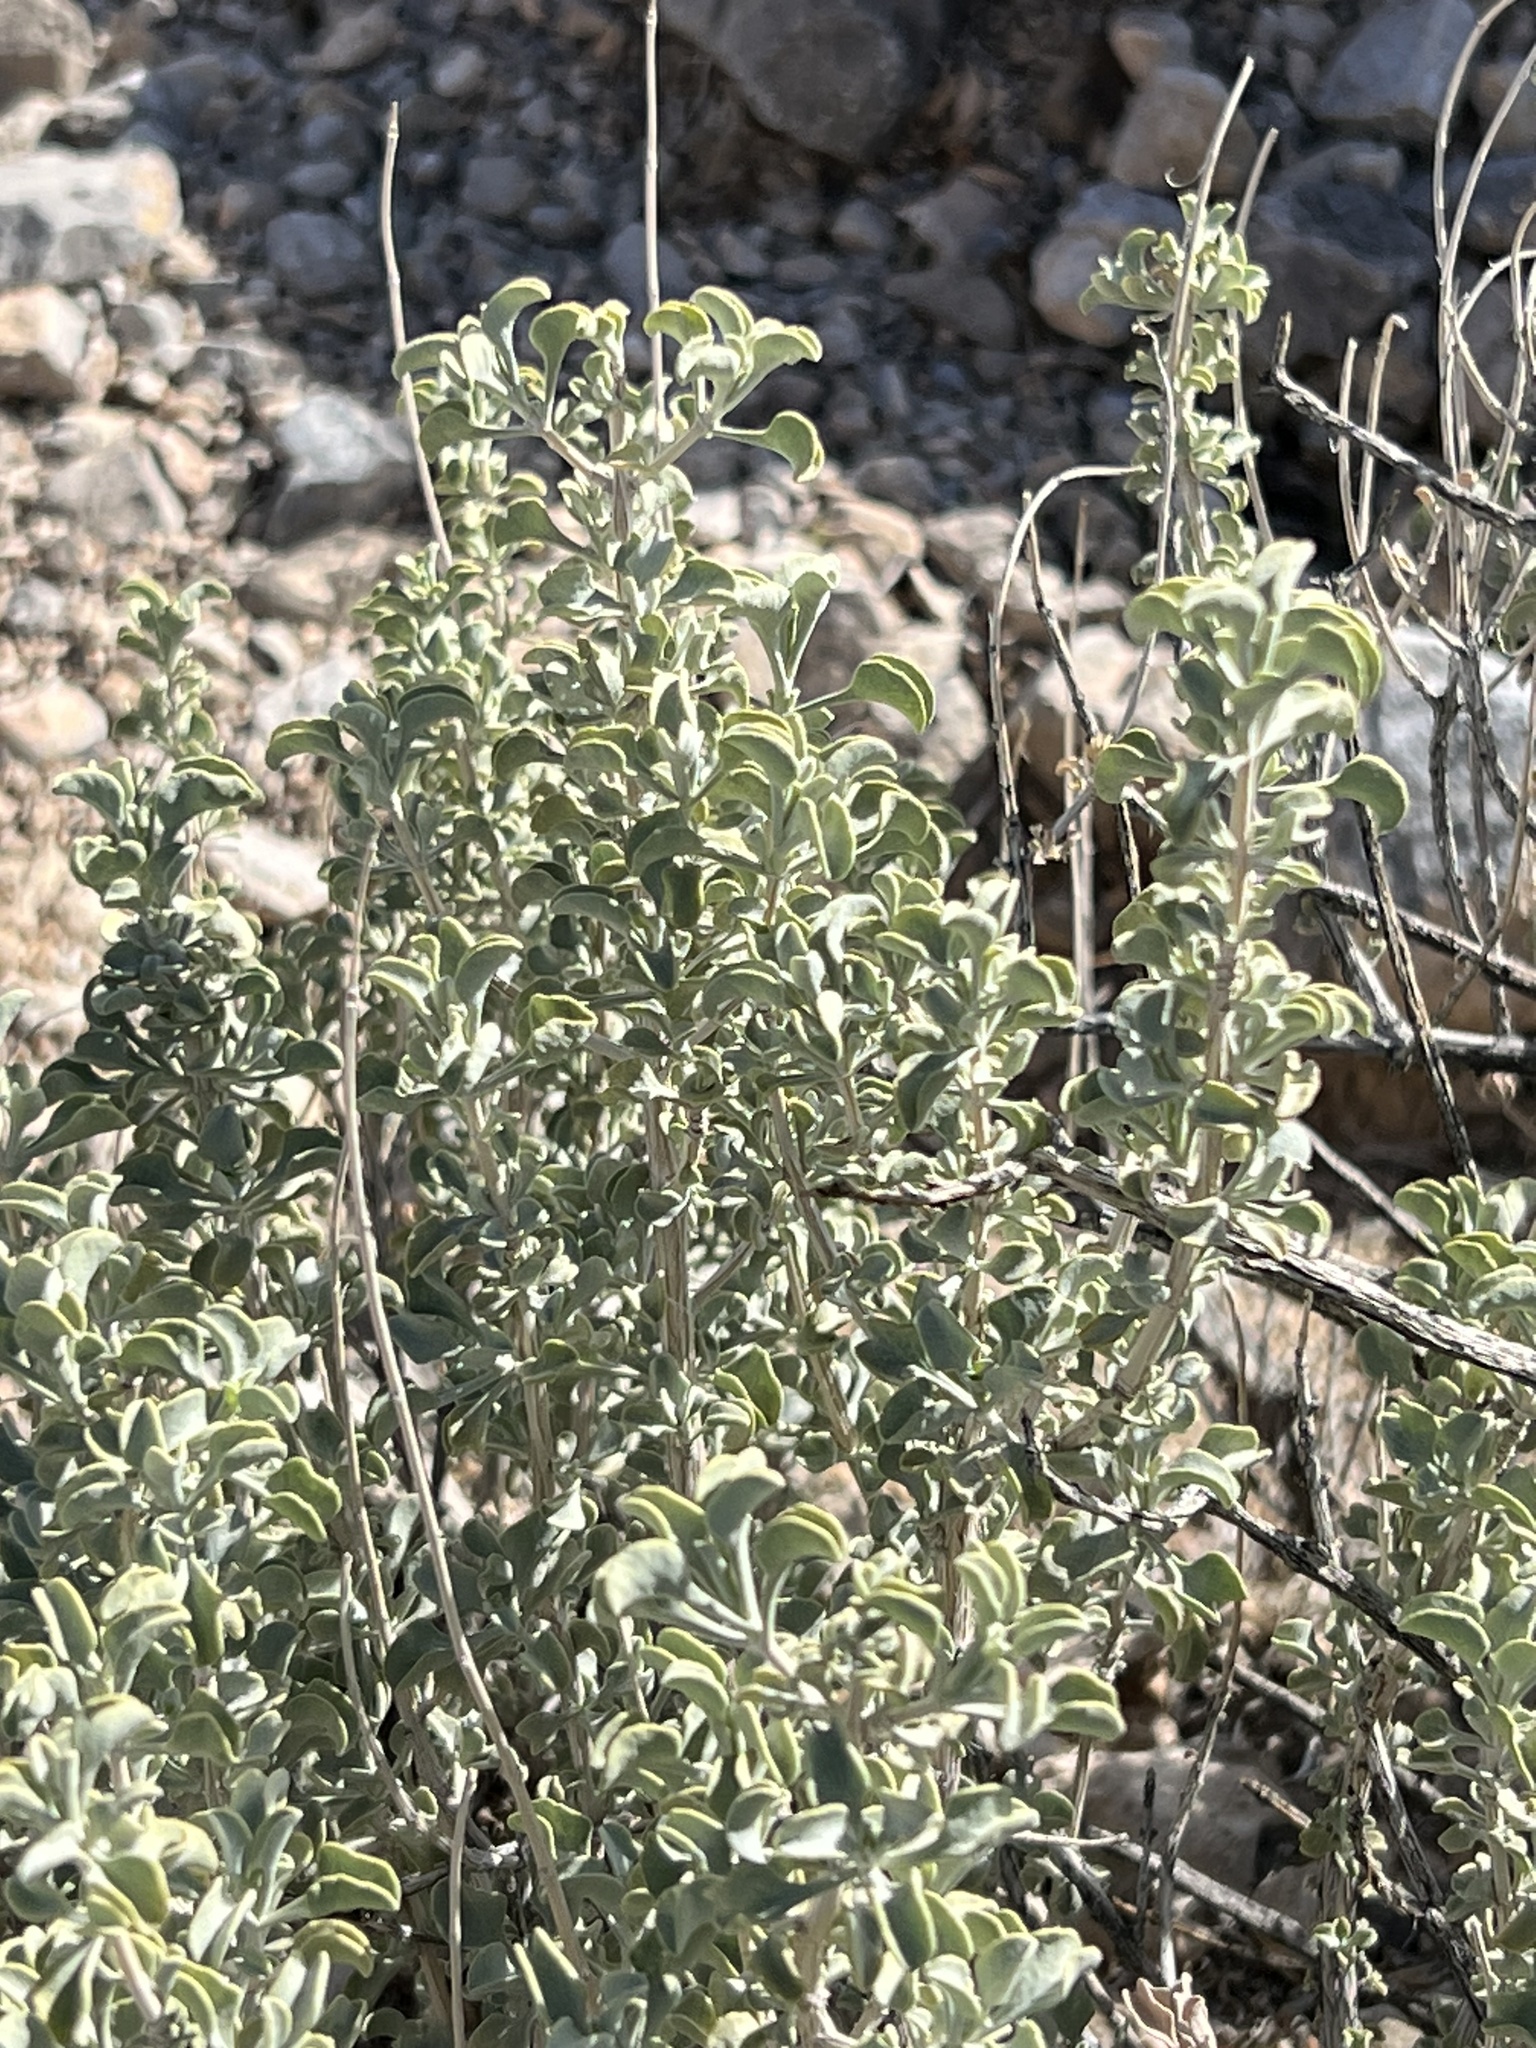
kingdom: Plantae
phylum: Tracheophyta
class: Magnoliopsida
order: Lamiales
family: Lamiaceae
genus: Salvia
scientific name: Salvia dorrii
